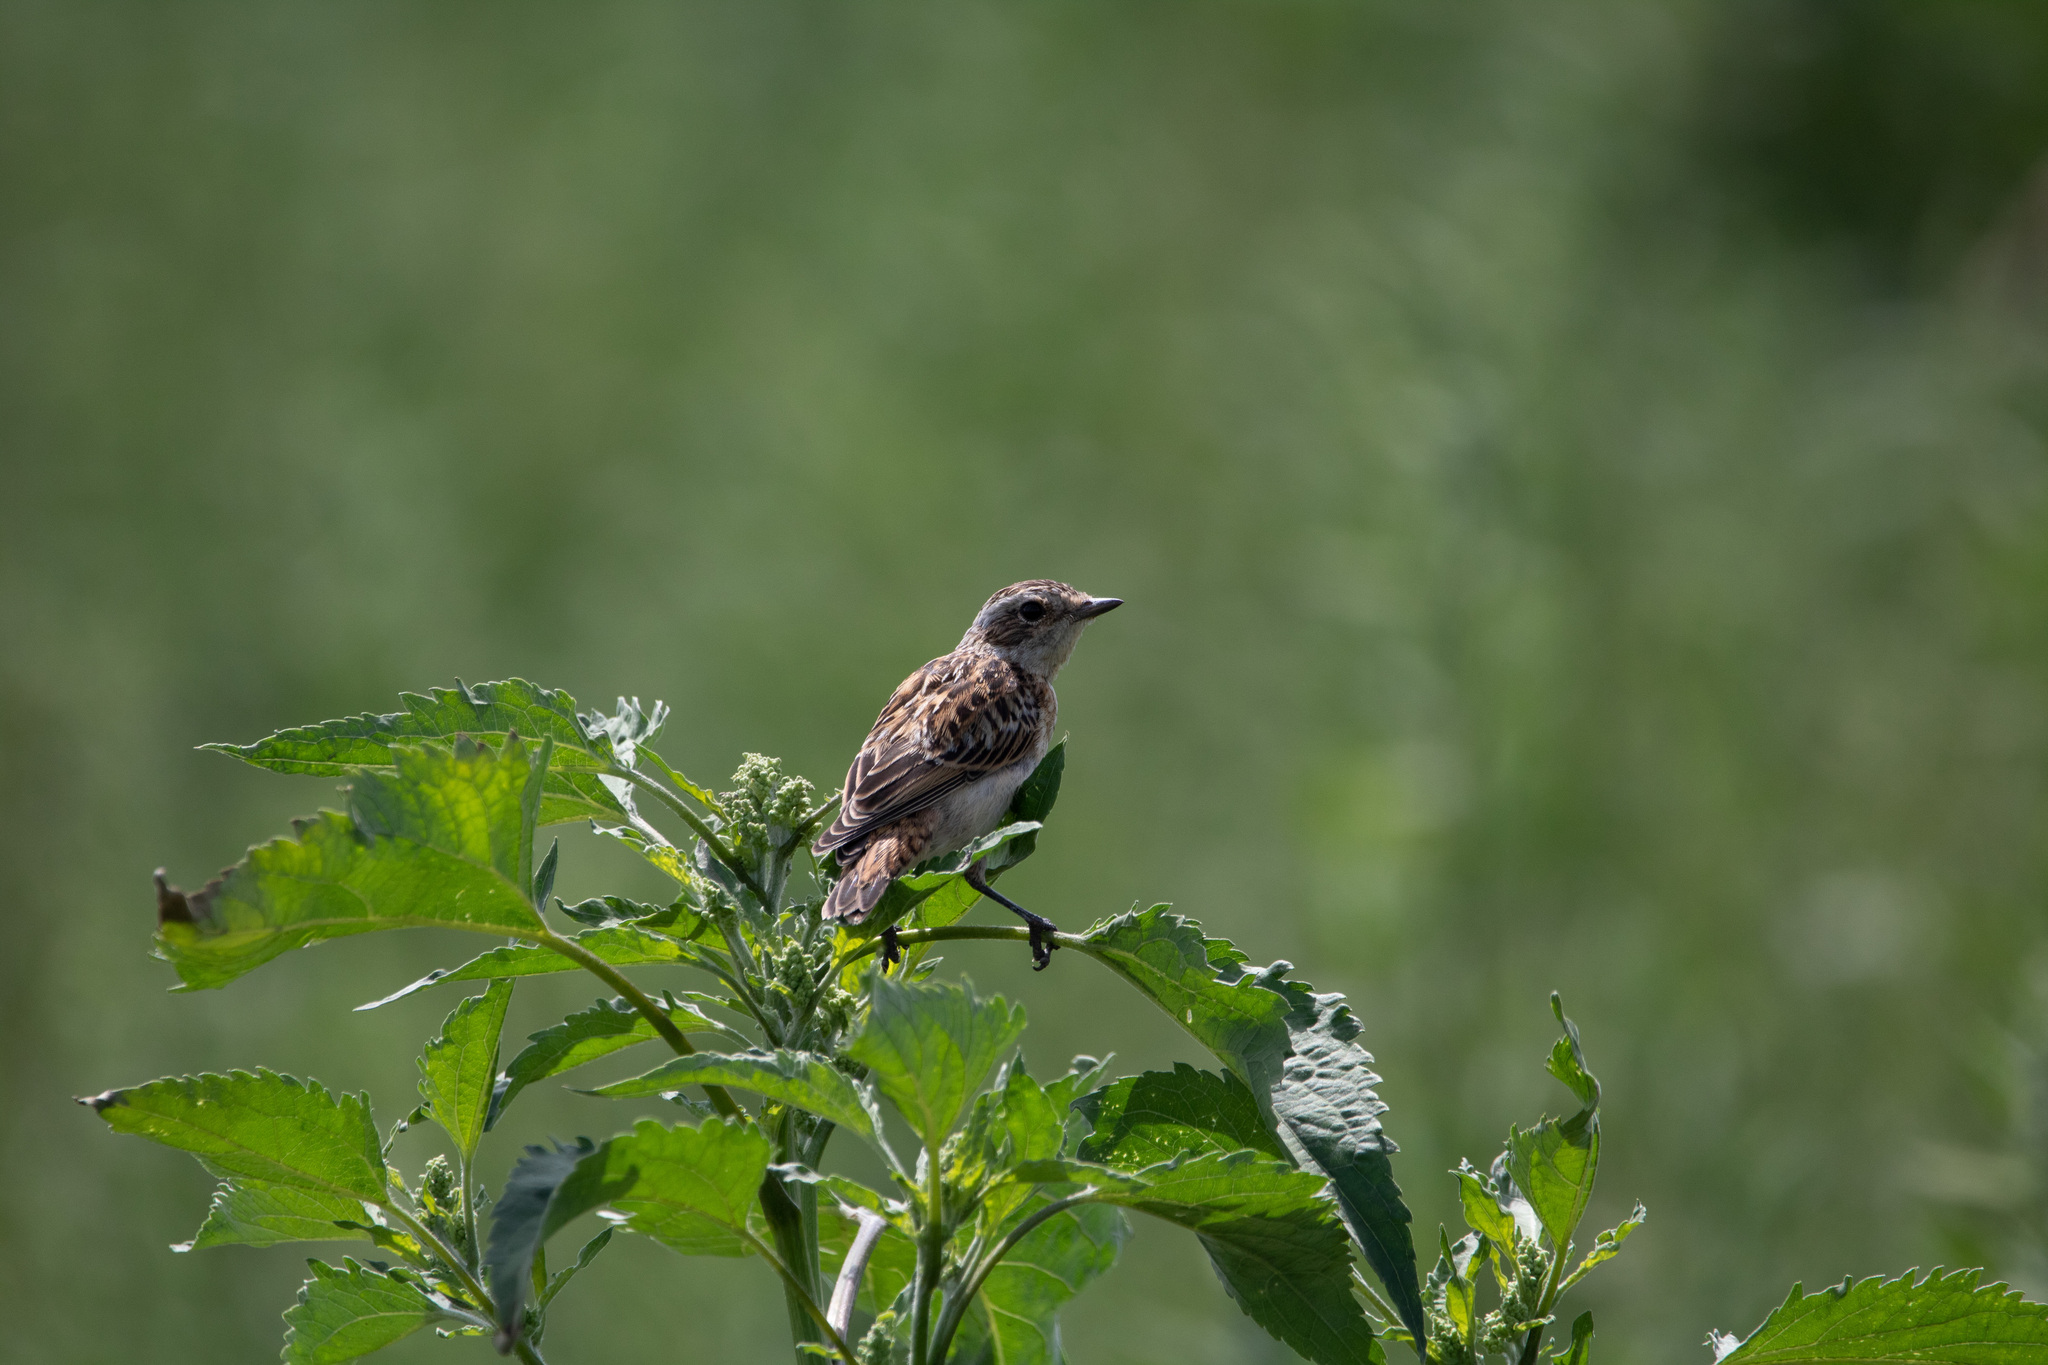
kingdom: Animalia
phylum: Chordata
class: Aves
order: Passeriformes
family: Muscicapidae
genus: Saxicola
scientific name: Saxicola rubetra
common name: Whinchat
